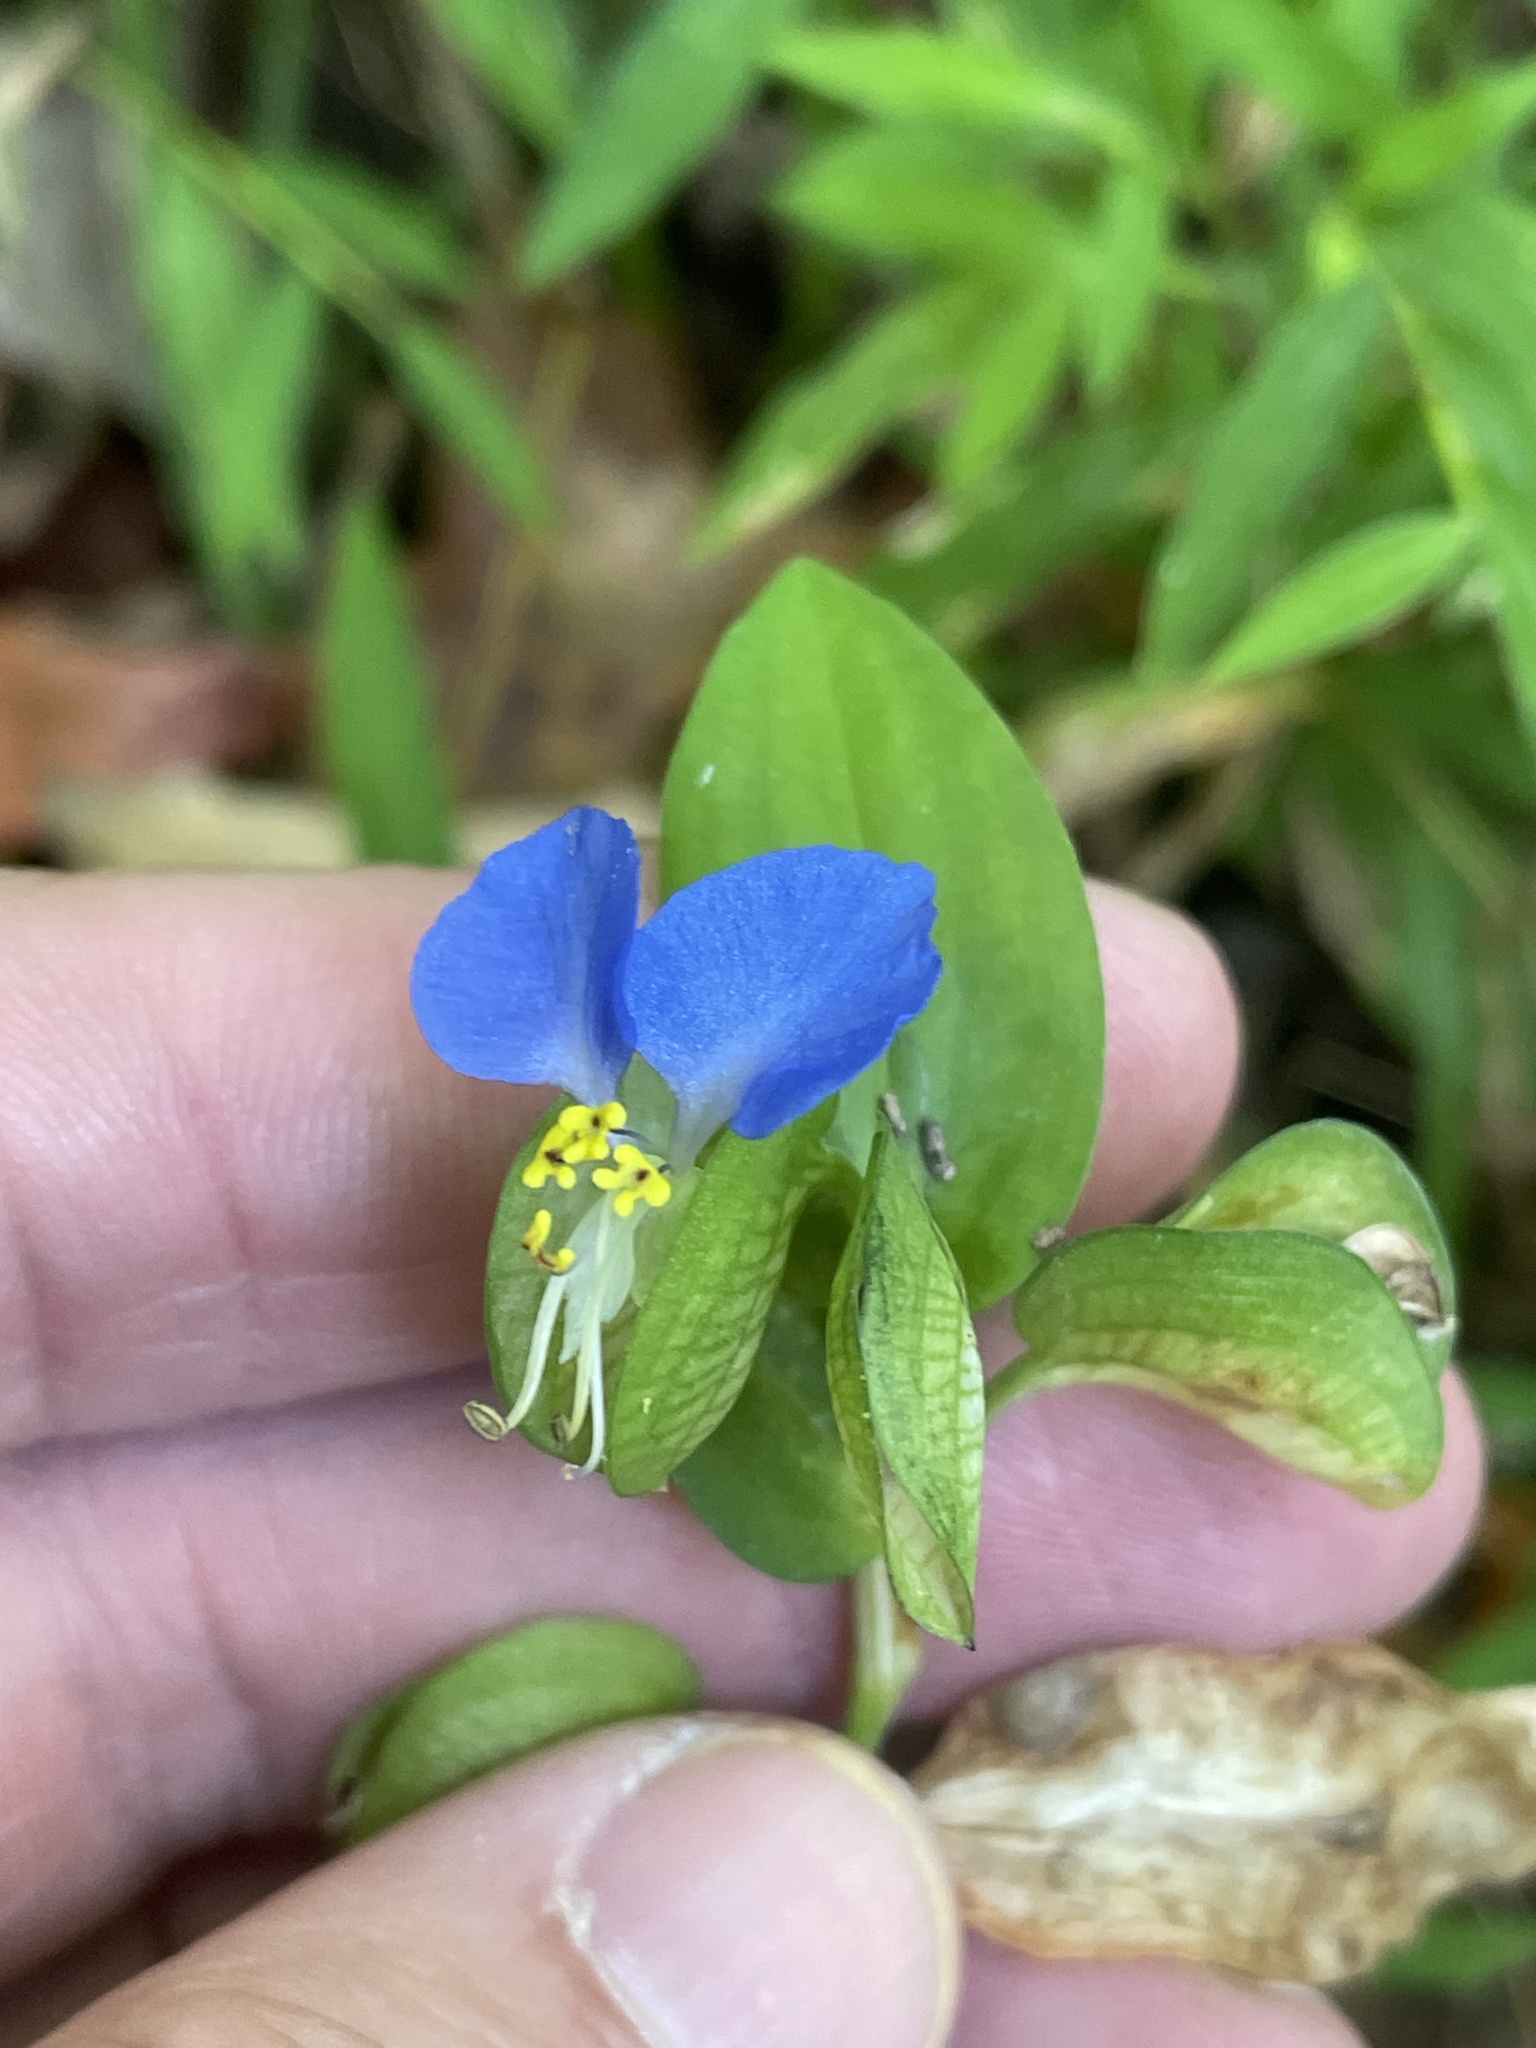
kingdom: Plantae
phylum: Tracheophyta
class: Liliopsida
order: Commelinales
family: Commelinaceae
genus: Commelina
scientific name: Commelina communis
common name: Asiatic dayflower
